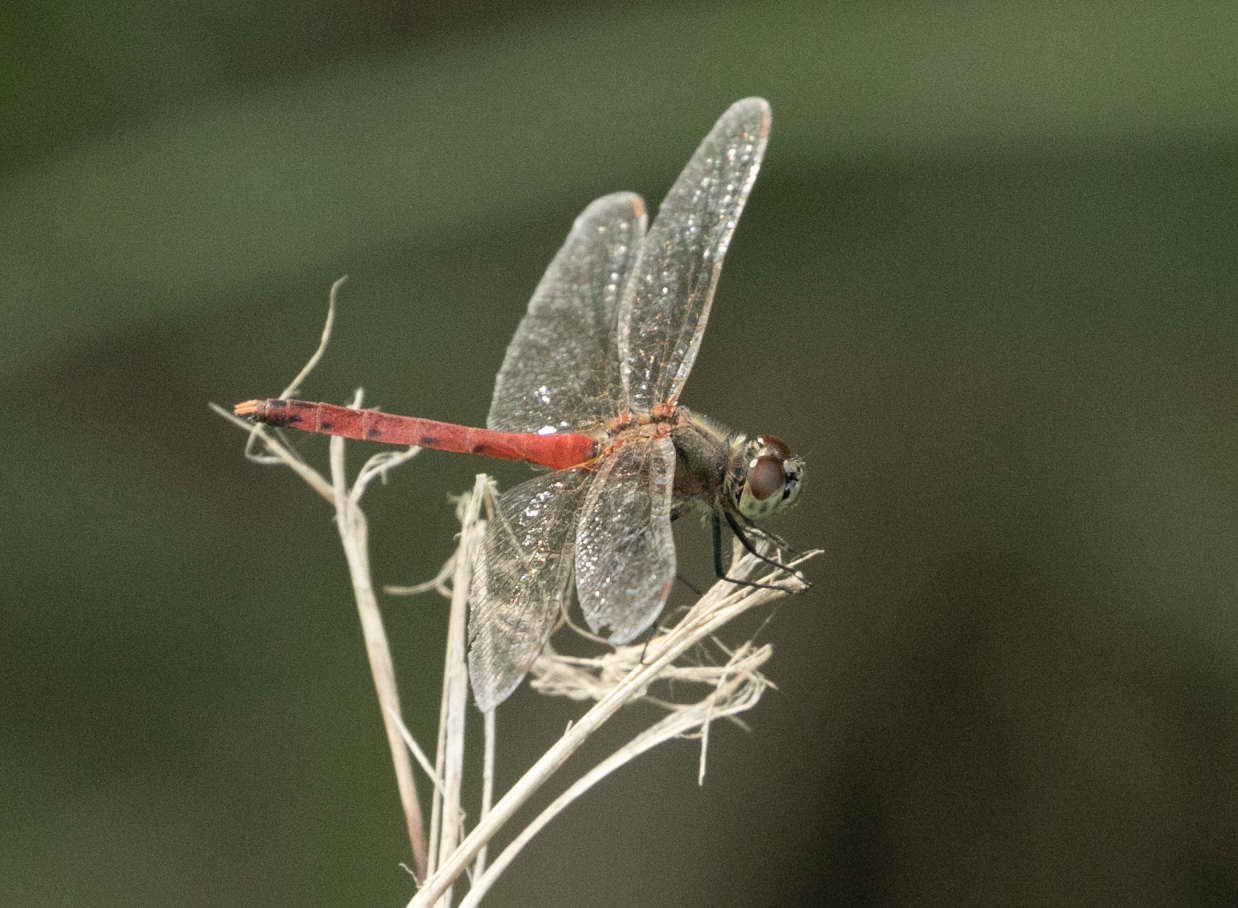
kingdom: Animalia
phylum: Arthropoda
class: Insecta
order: Odonata
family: Libellulidae
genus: Sympetrum
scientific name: Sympetrum depressiusculum
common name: Spotted darter
